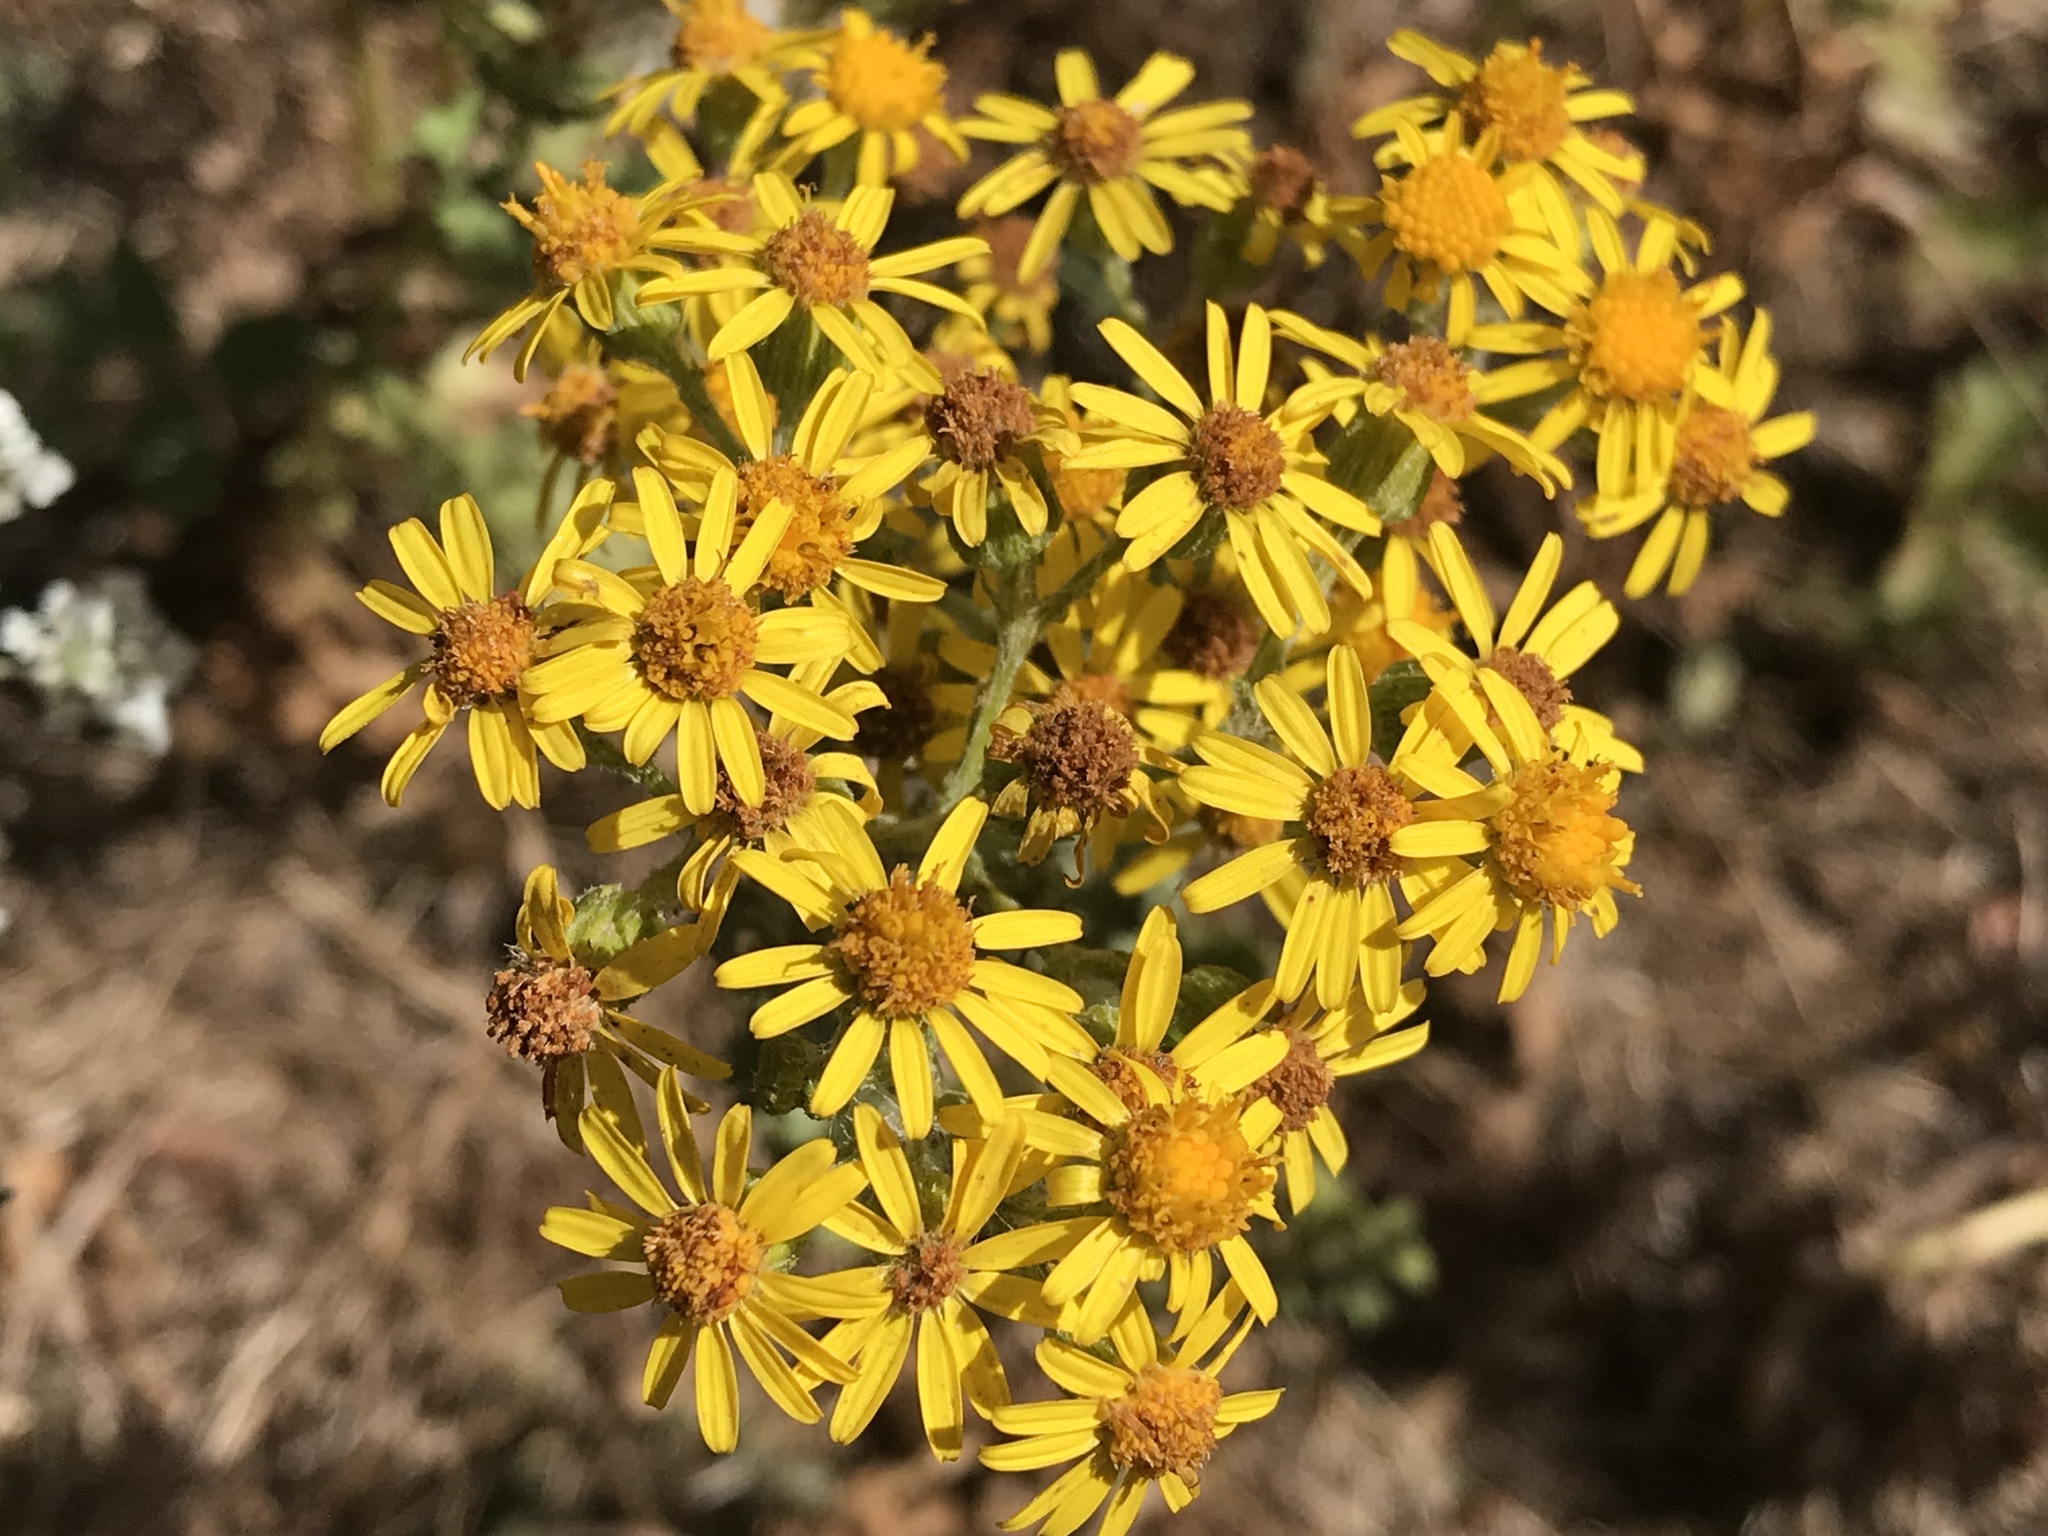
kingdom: Plantae
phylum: Tracheophyta
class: Magnoliopsida
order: Asterales
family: Asteraceae
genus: Jacobaea
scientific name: Jacobaea vulgaris
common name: Stinking willie
